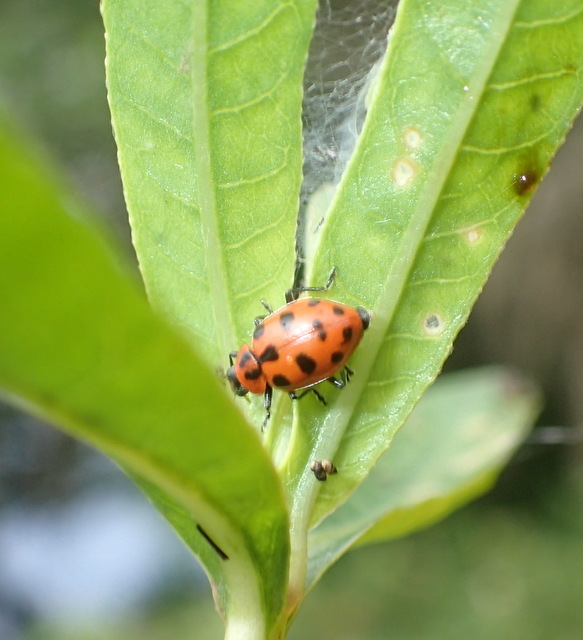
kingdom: Animalia
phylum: Arthropoda
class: Insecta
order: Coleoptera
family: Coccinellidae
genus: Coleomegilla
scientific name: Coleomegilla maculata
